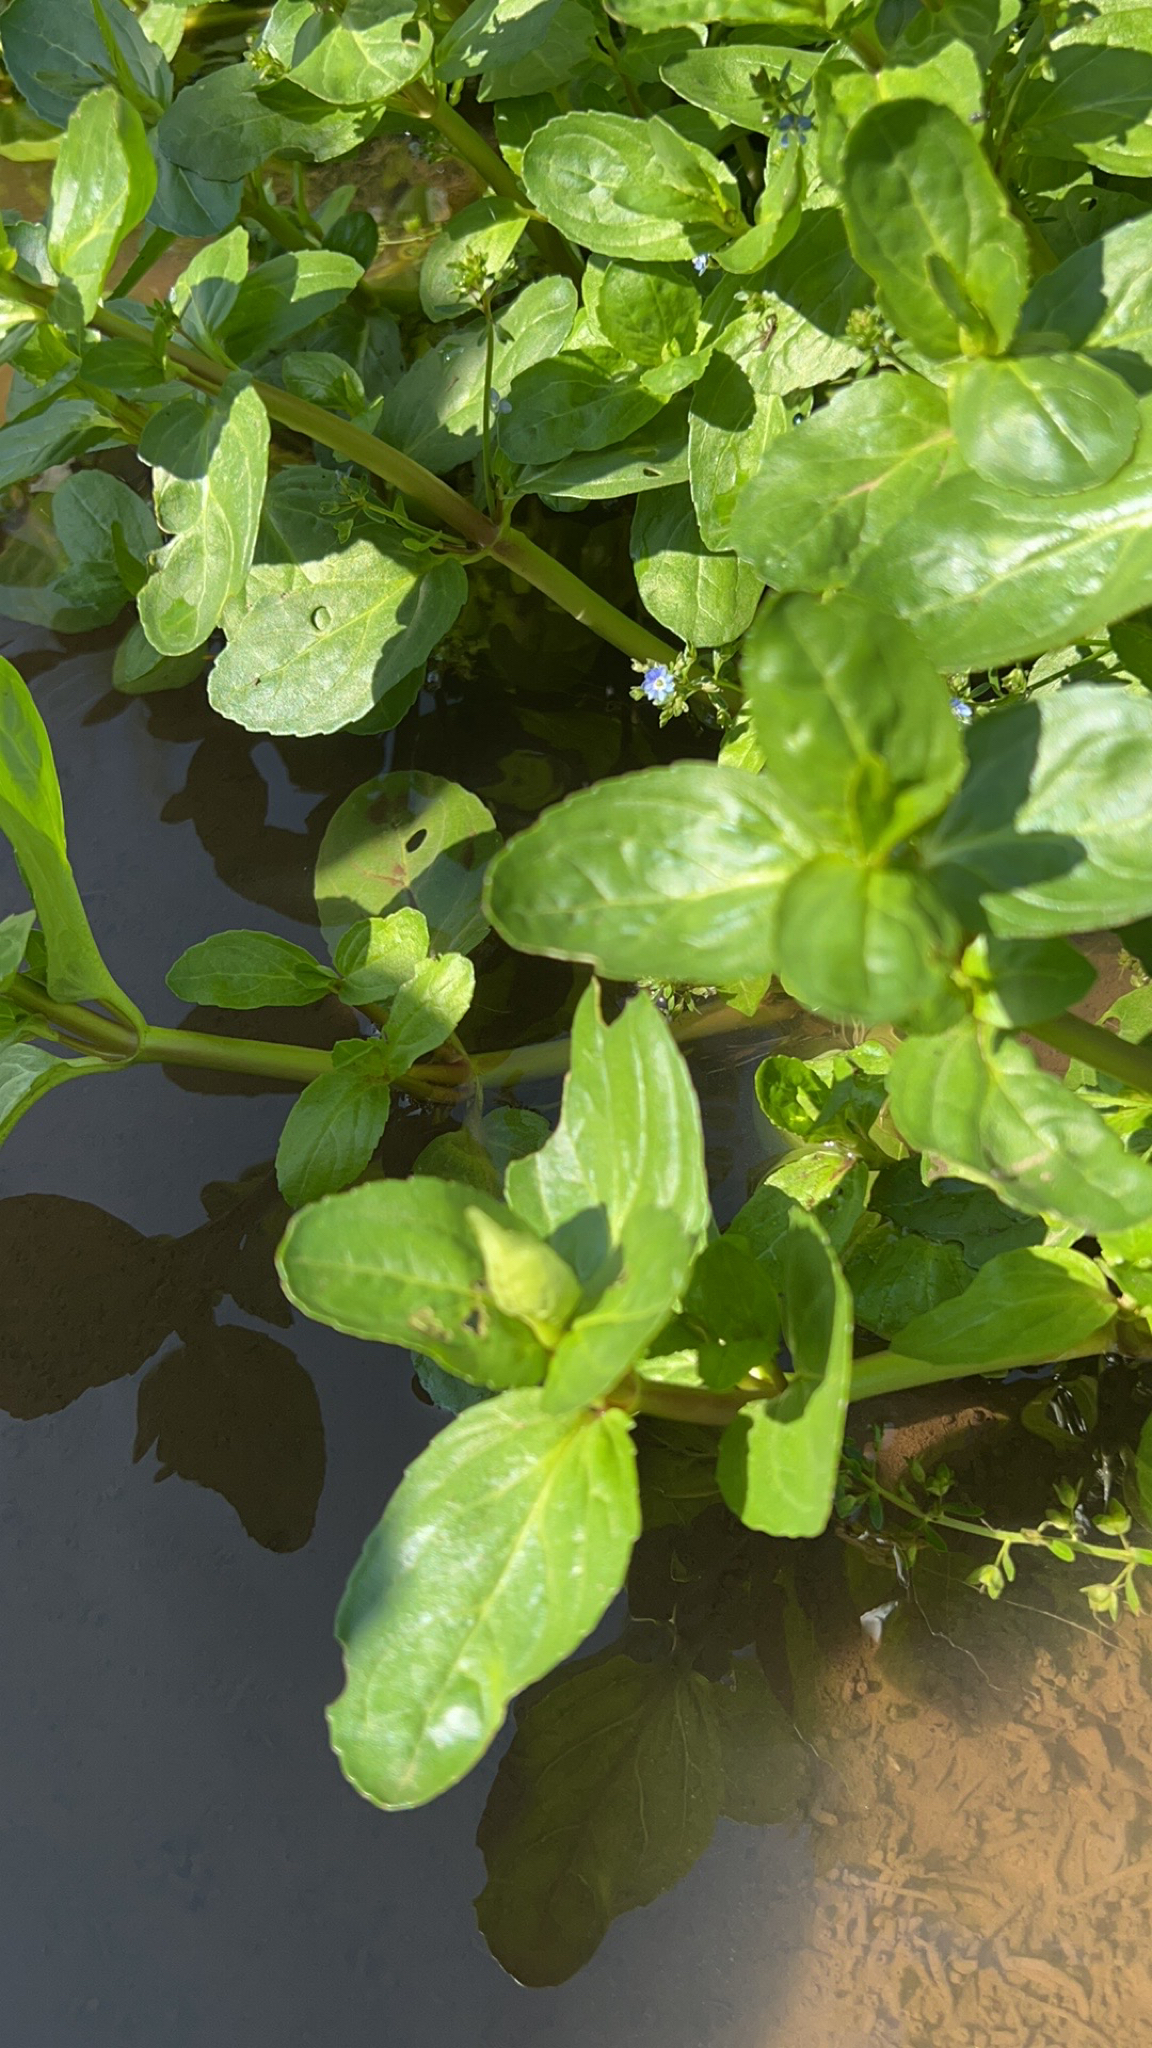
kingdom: Plantae
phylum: Tracheophyta
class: Magnoliopsida
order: Lamiales
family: Plantaginaceae
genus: Veronica
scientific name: Veronica beccabunga
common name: Brooklime
